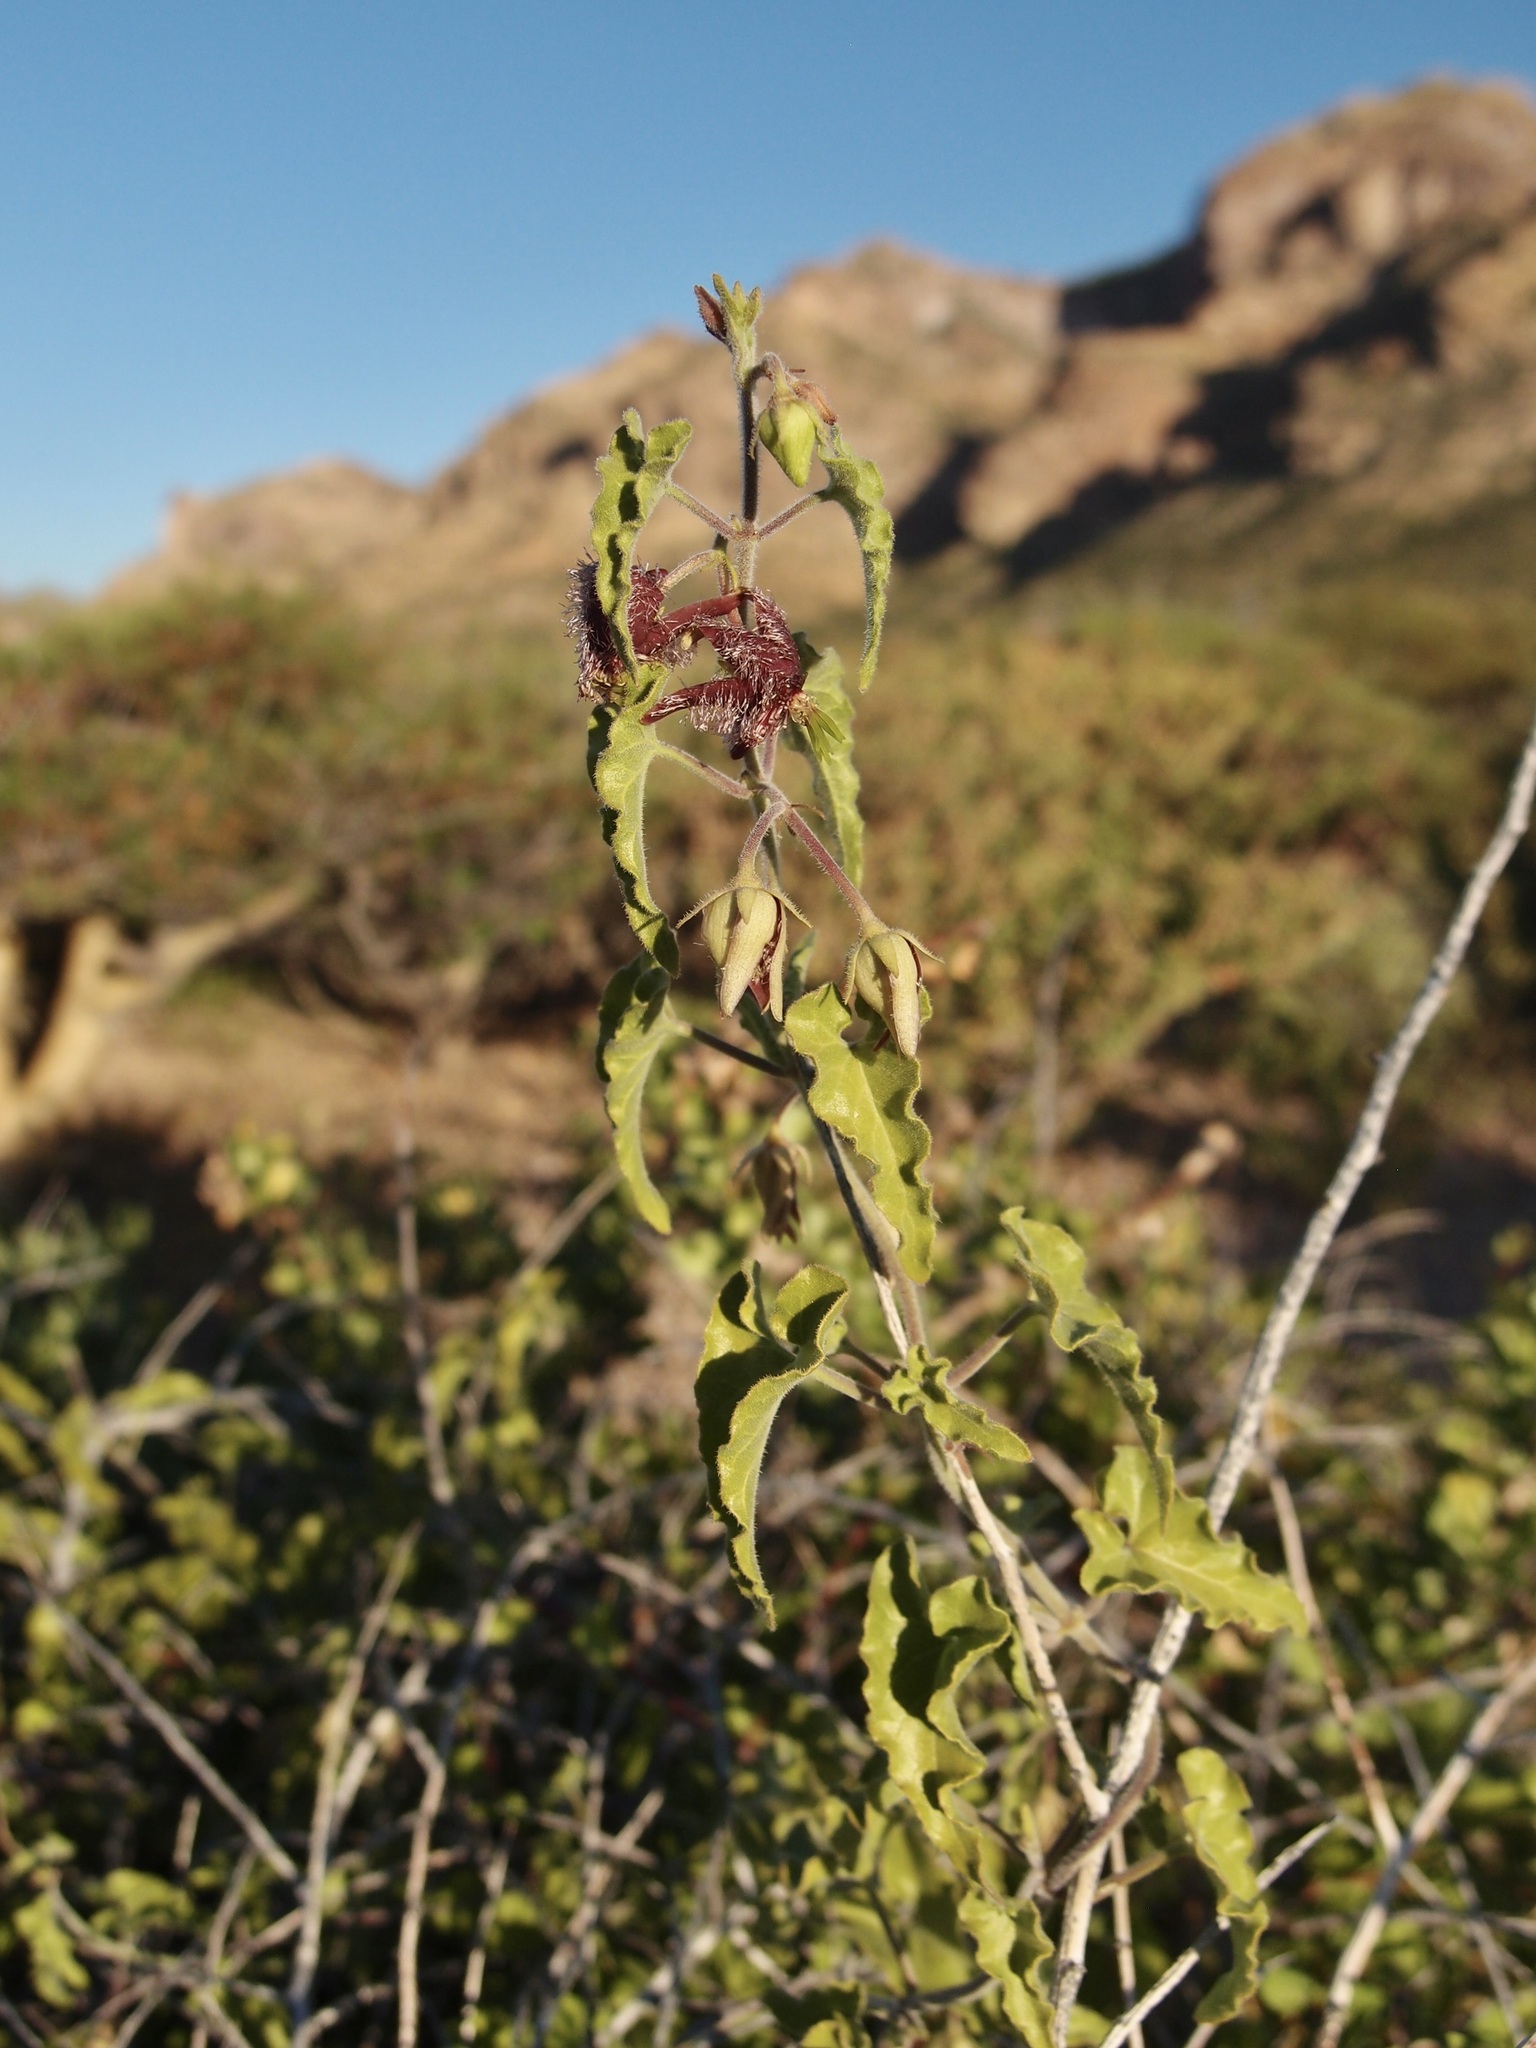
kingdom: Plantae
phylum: Tracheophyta
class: Magnoliopsida
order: Gentianales
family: Apocynaceae
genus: Metastelma
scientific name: Metastelma pringlei
